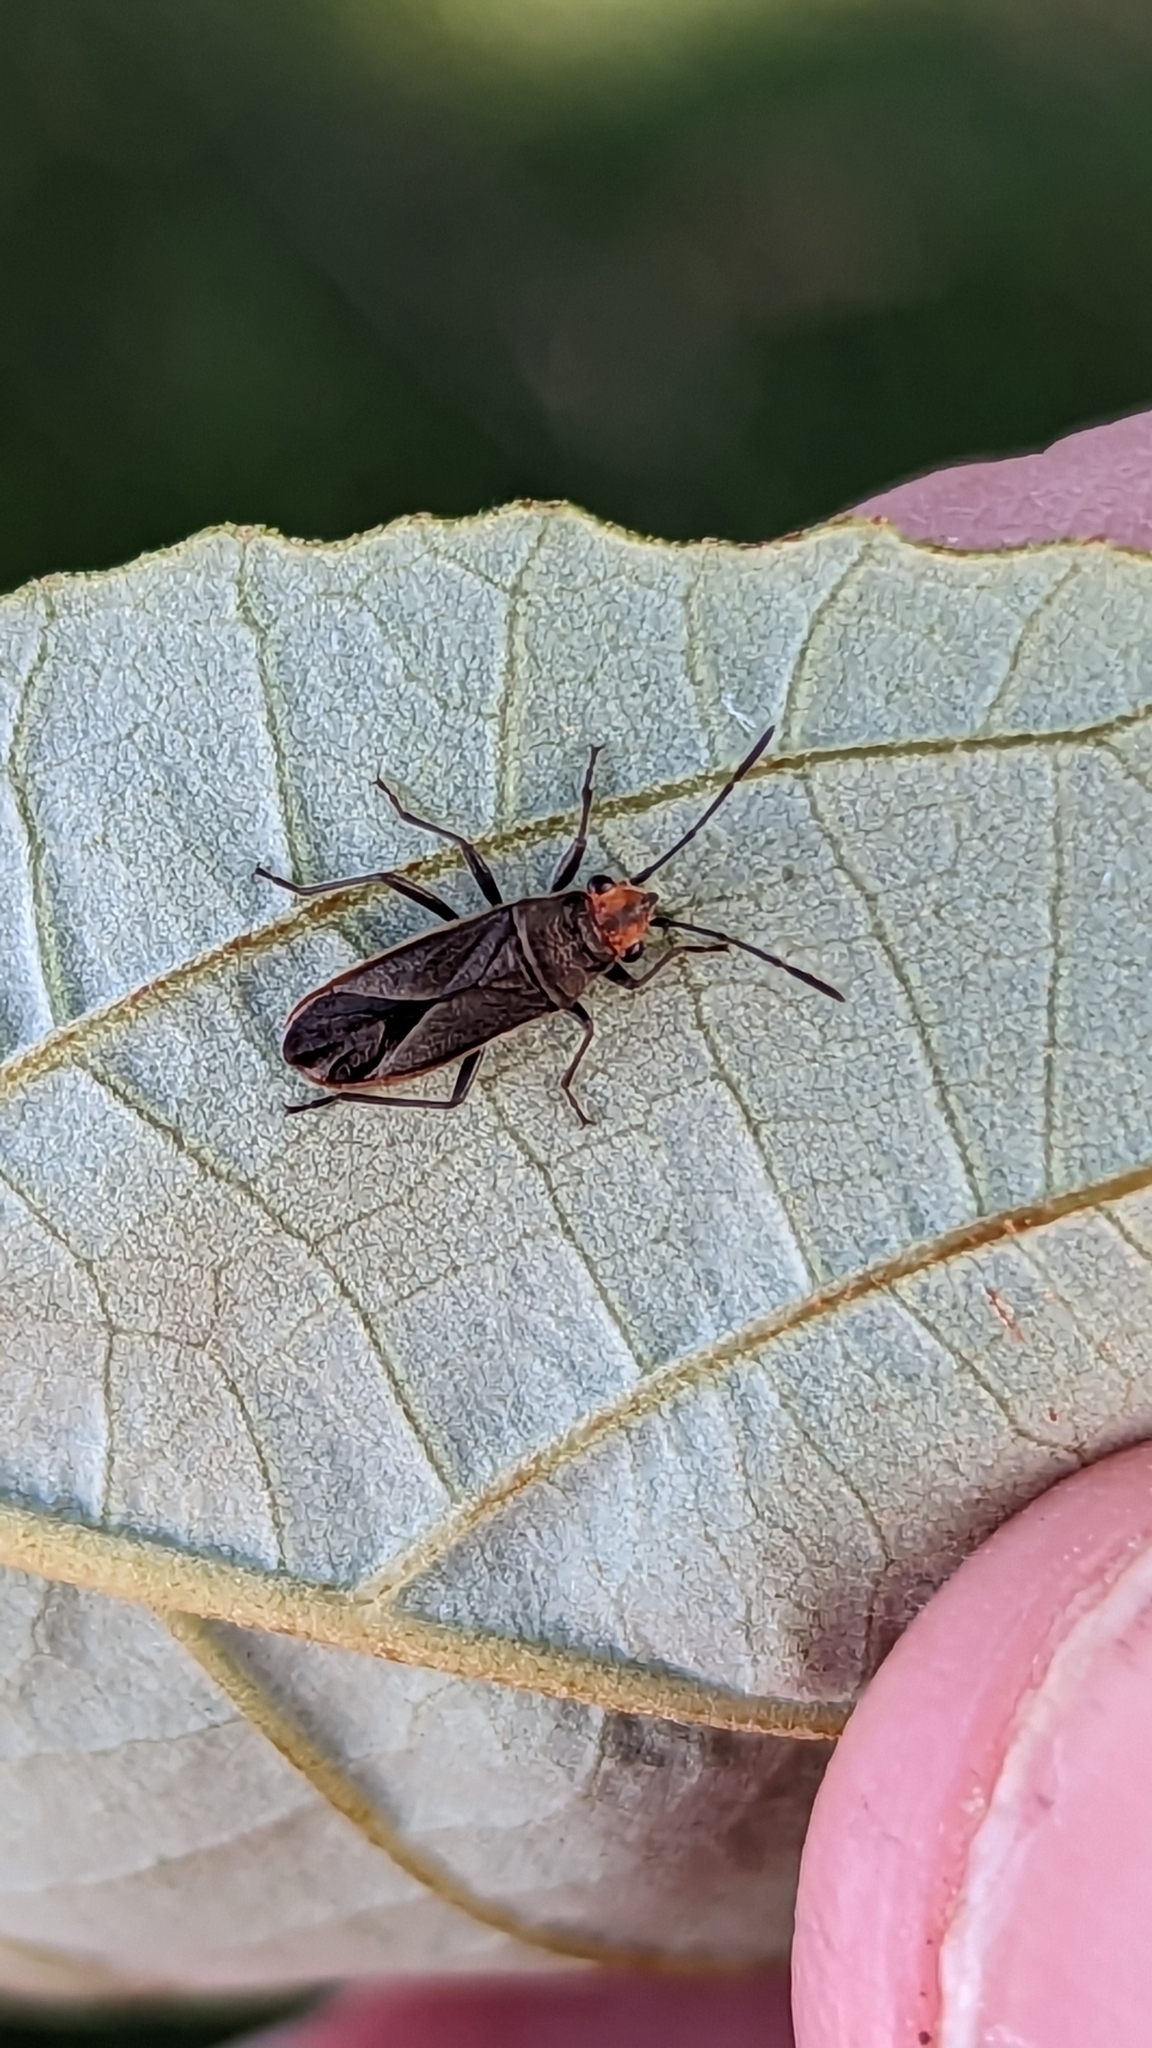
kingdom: Animalia
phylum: Arthropoda
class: Insecta
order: Hemiptera
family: Lygaeidae
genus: Arocatus
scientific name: Arocatus aenescens
